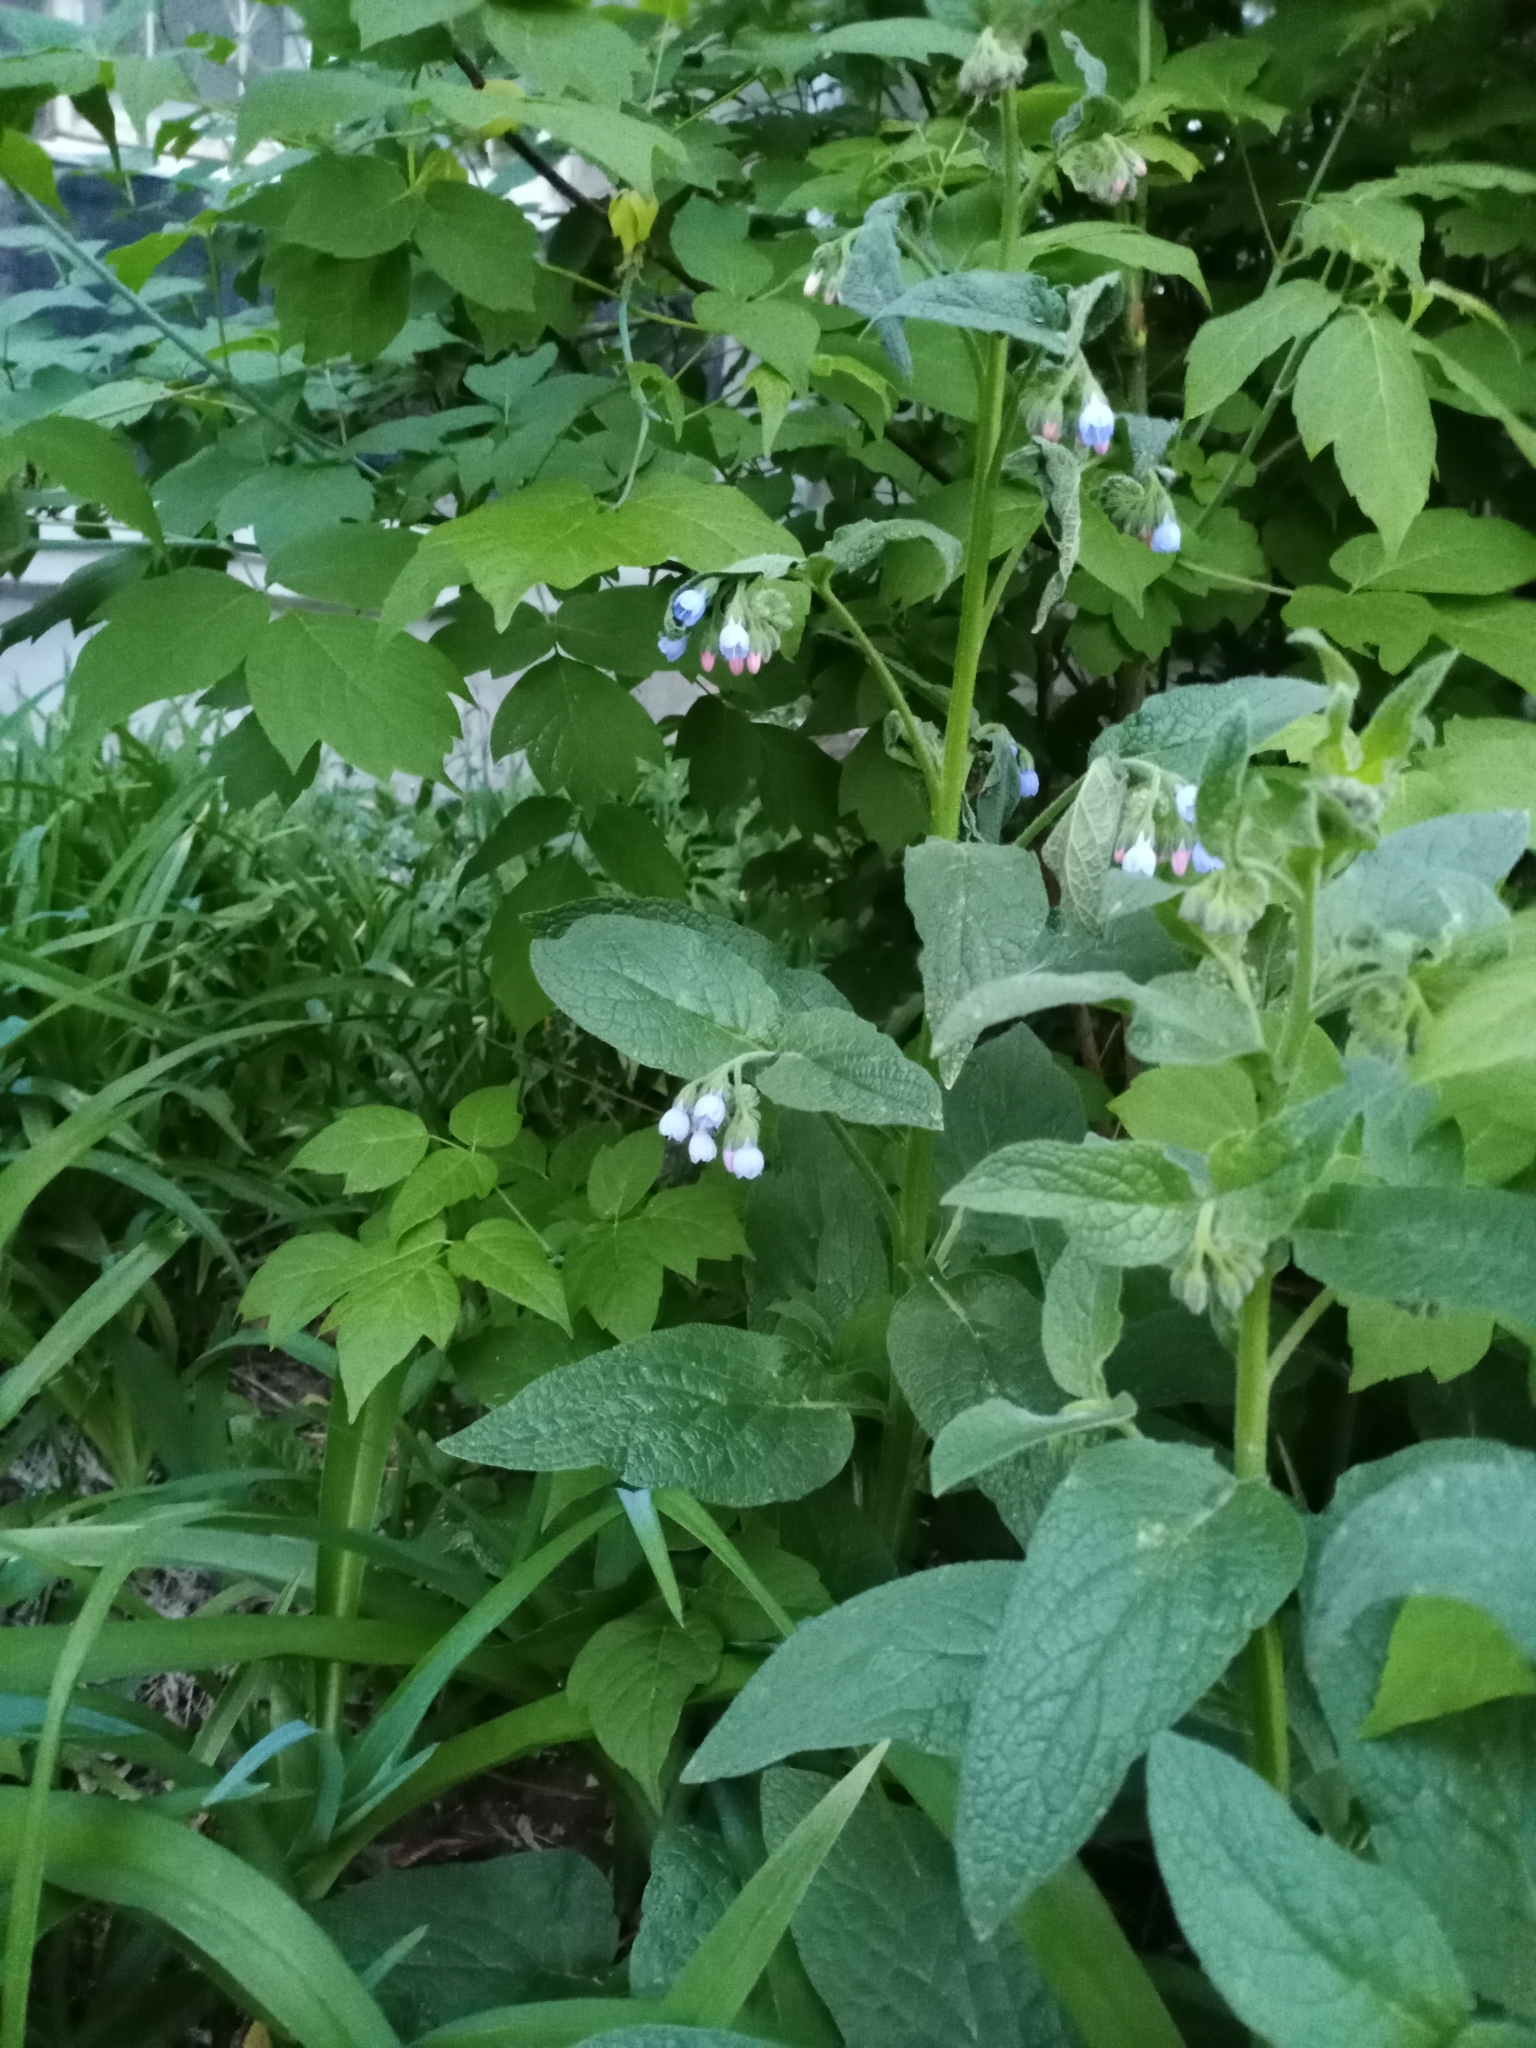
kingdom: Plantae
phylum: Tracheophyta
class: Magnoliopsida
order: Boraginales
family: Boraginaceae
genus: Symphytum
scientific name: Symphytum caucasicum
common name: Caucasian comfrey
